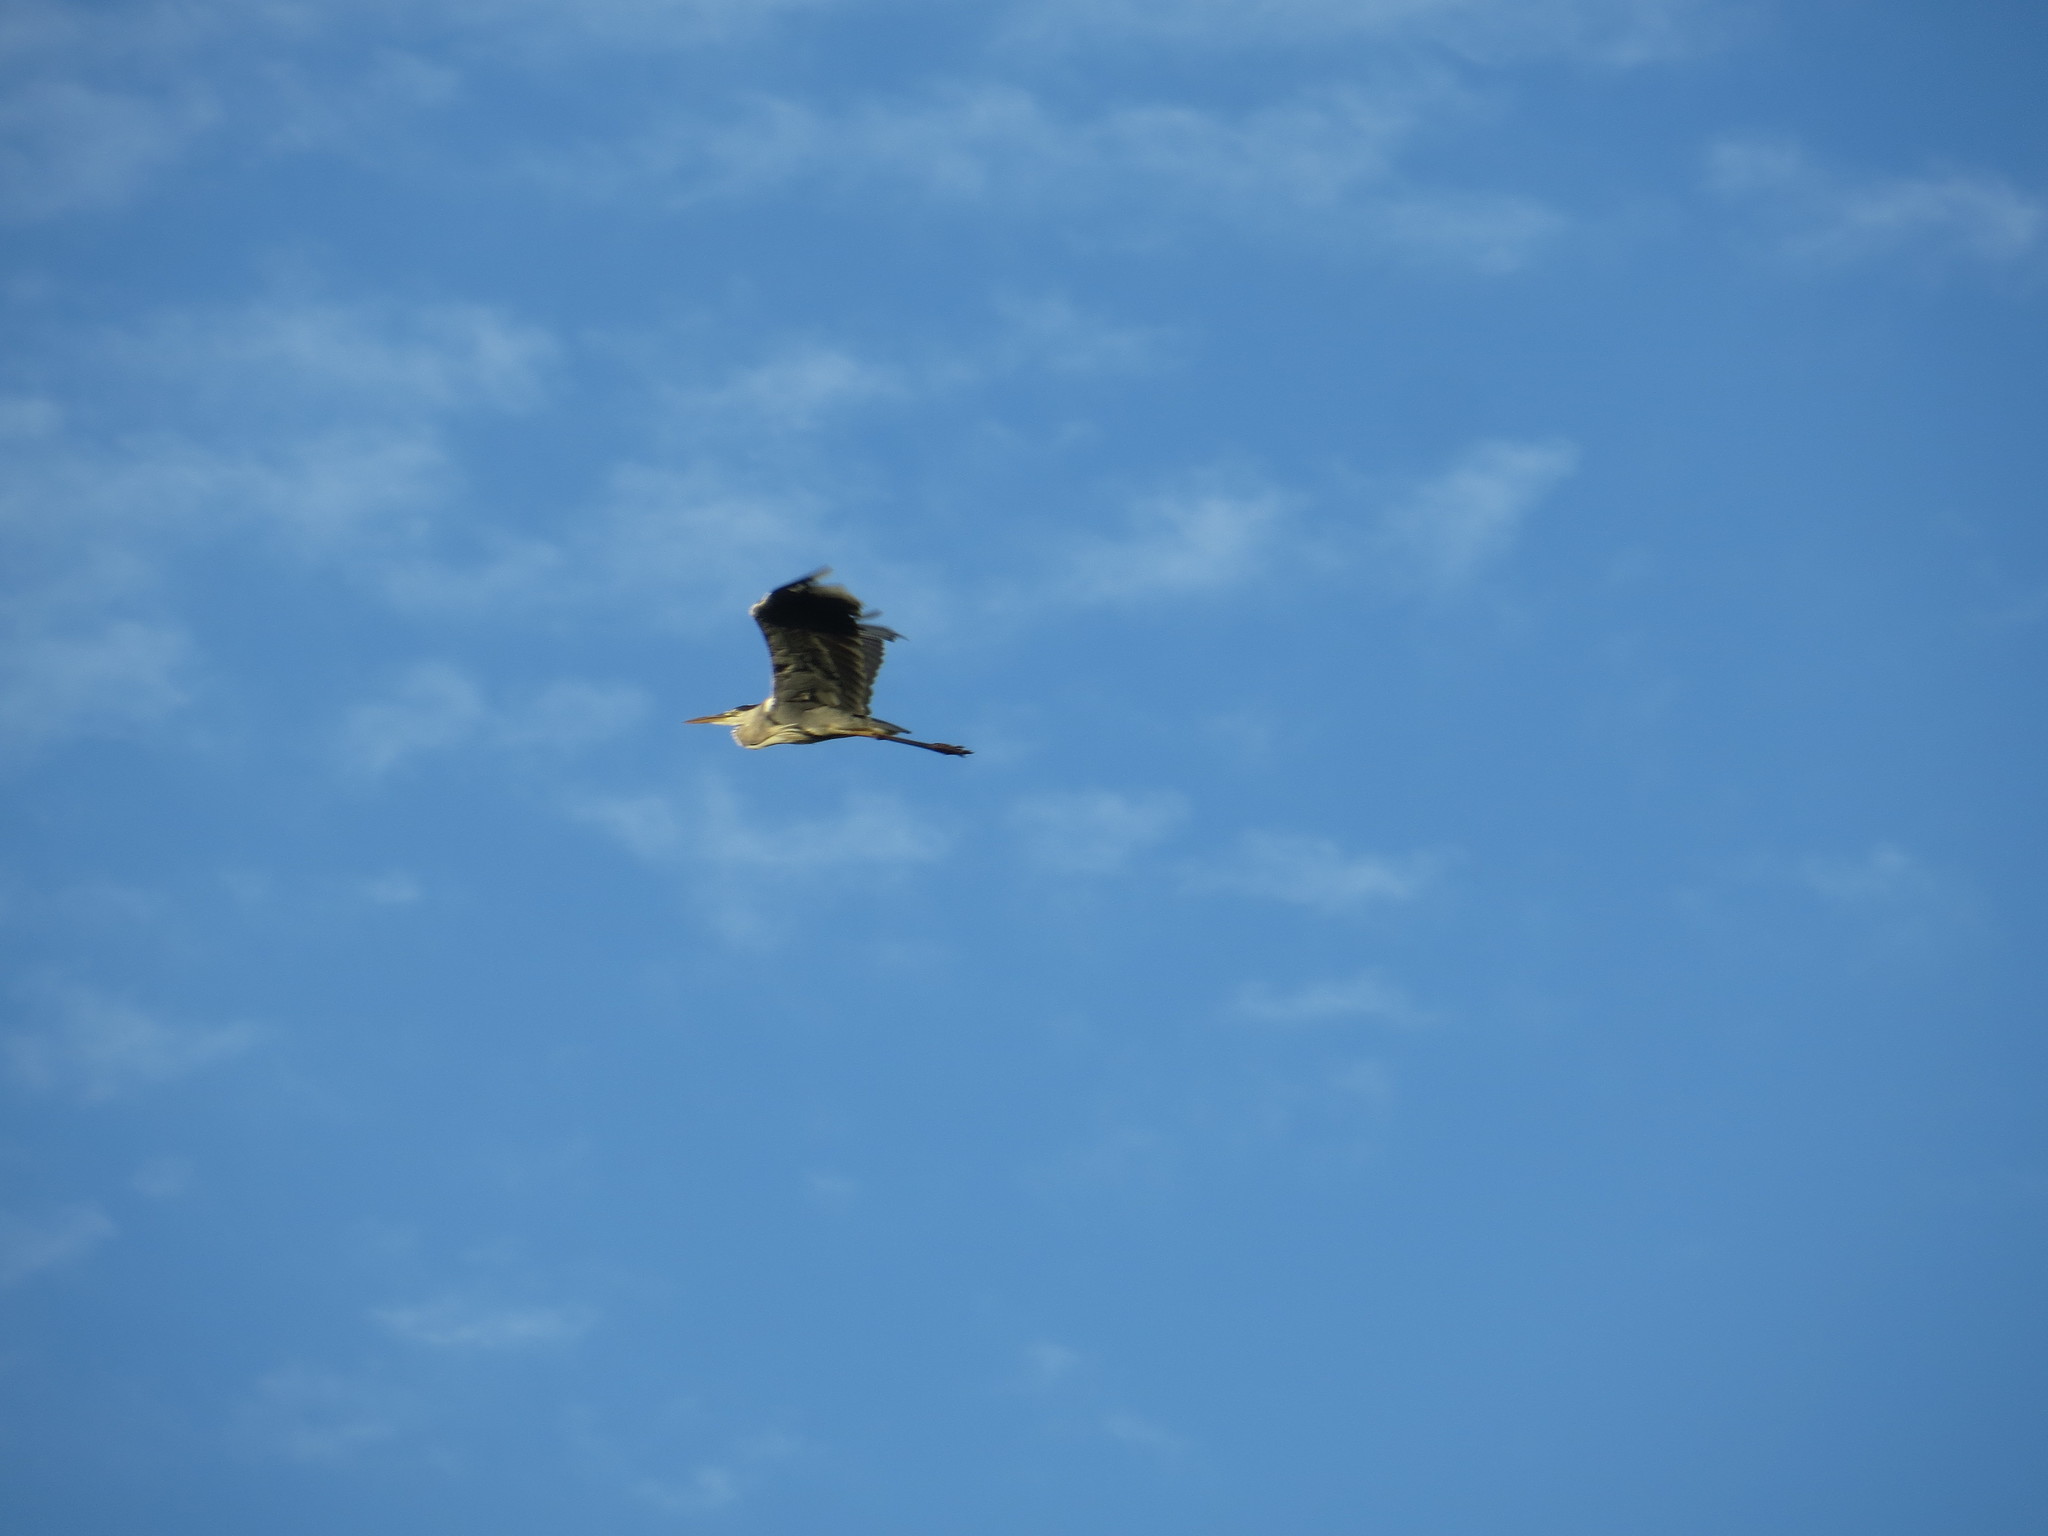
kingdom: Animalia
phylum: Chordata
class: Aves
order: Pelecaniformes
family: Ardeidae
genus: Ardea
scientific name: Ardea cinerea
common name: Grey heron
